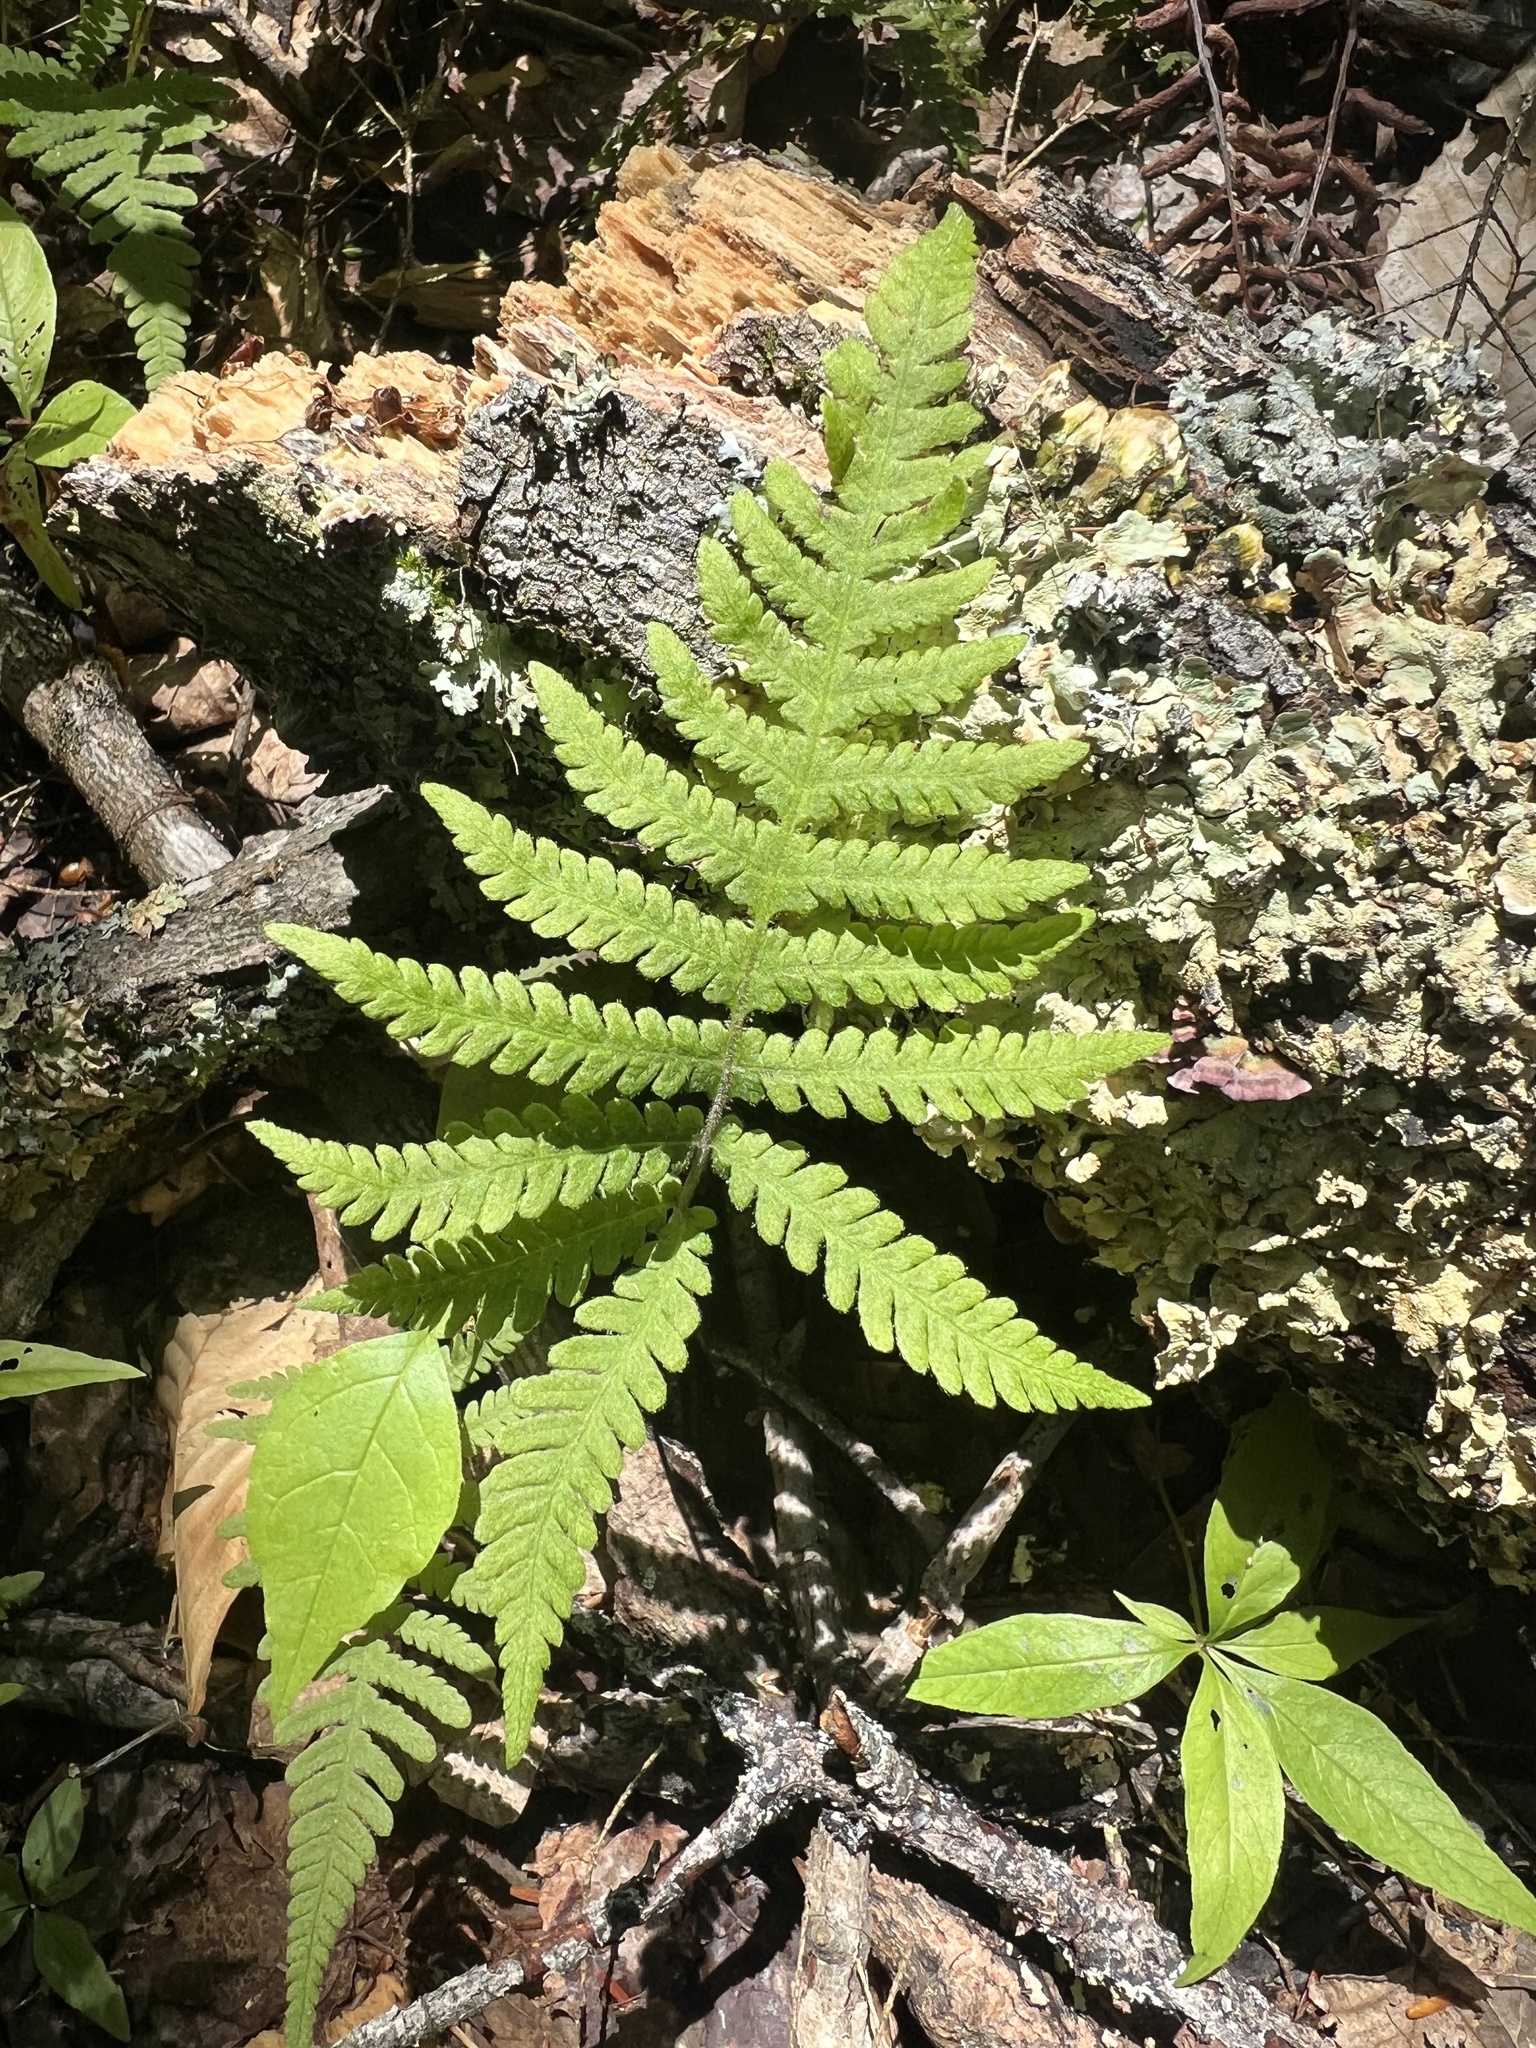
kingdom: Plantae
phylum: Tracheophyta
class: Polypodiopsida
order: Polypodiales
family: Thelypteridaceae
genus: Phegopteris
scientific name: Phegopteris connectilis
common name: Beech fern
